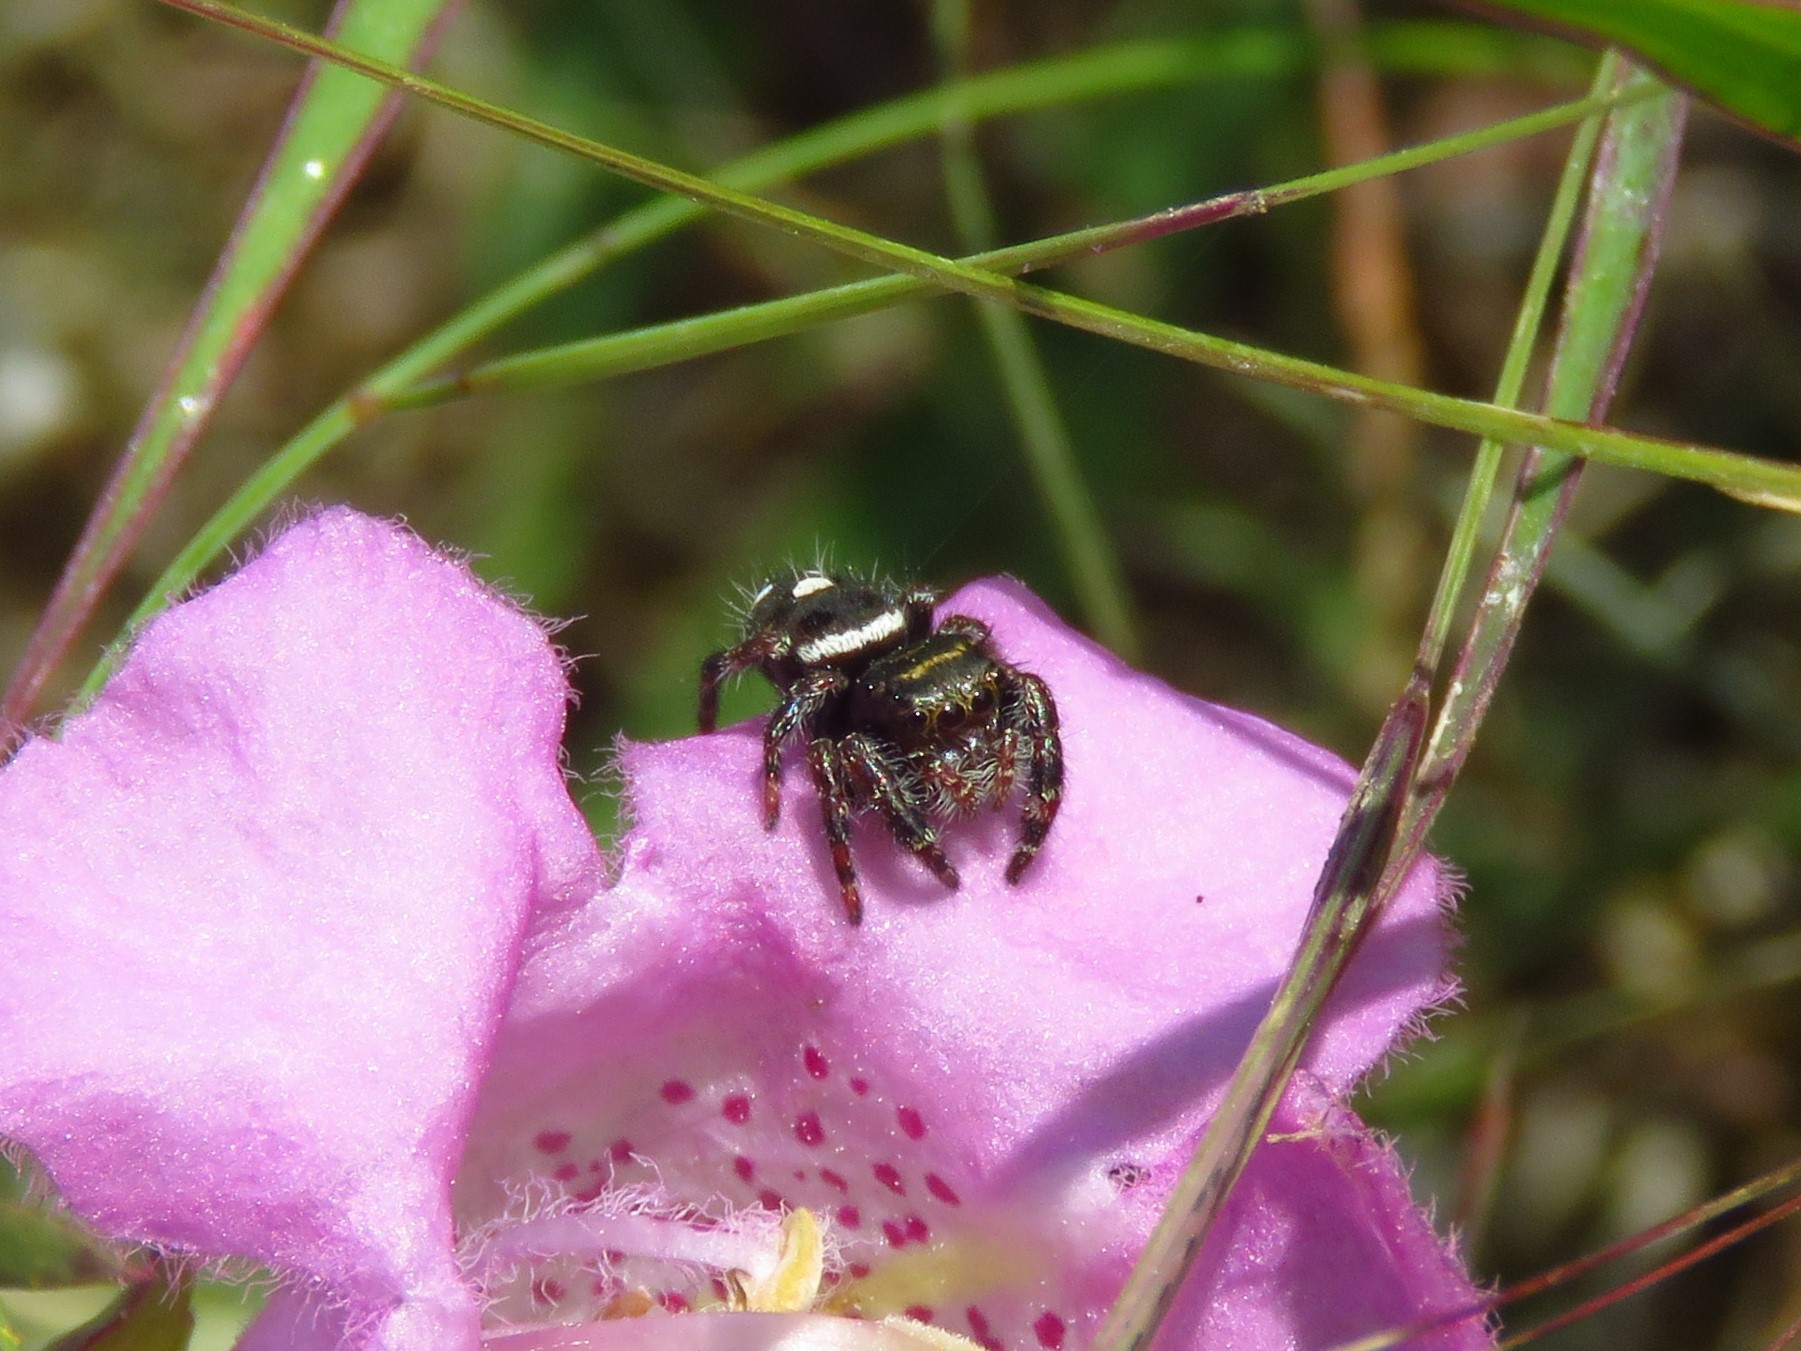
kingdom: Animalia
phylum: Arthropoda
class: Arachnida
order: Araneae
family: Salticidae
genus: Phidippus
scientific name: Phidippus audax
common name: Bold jumper
